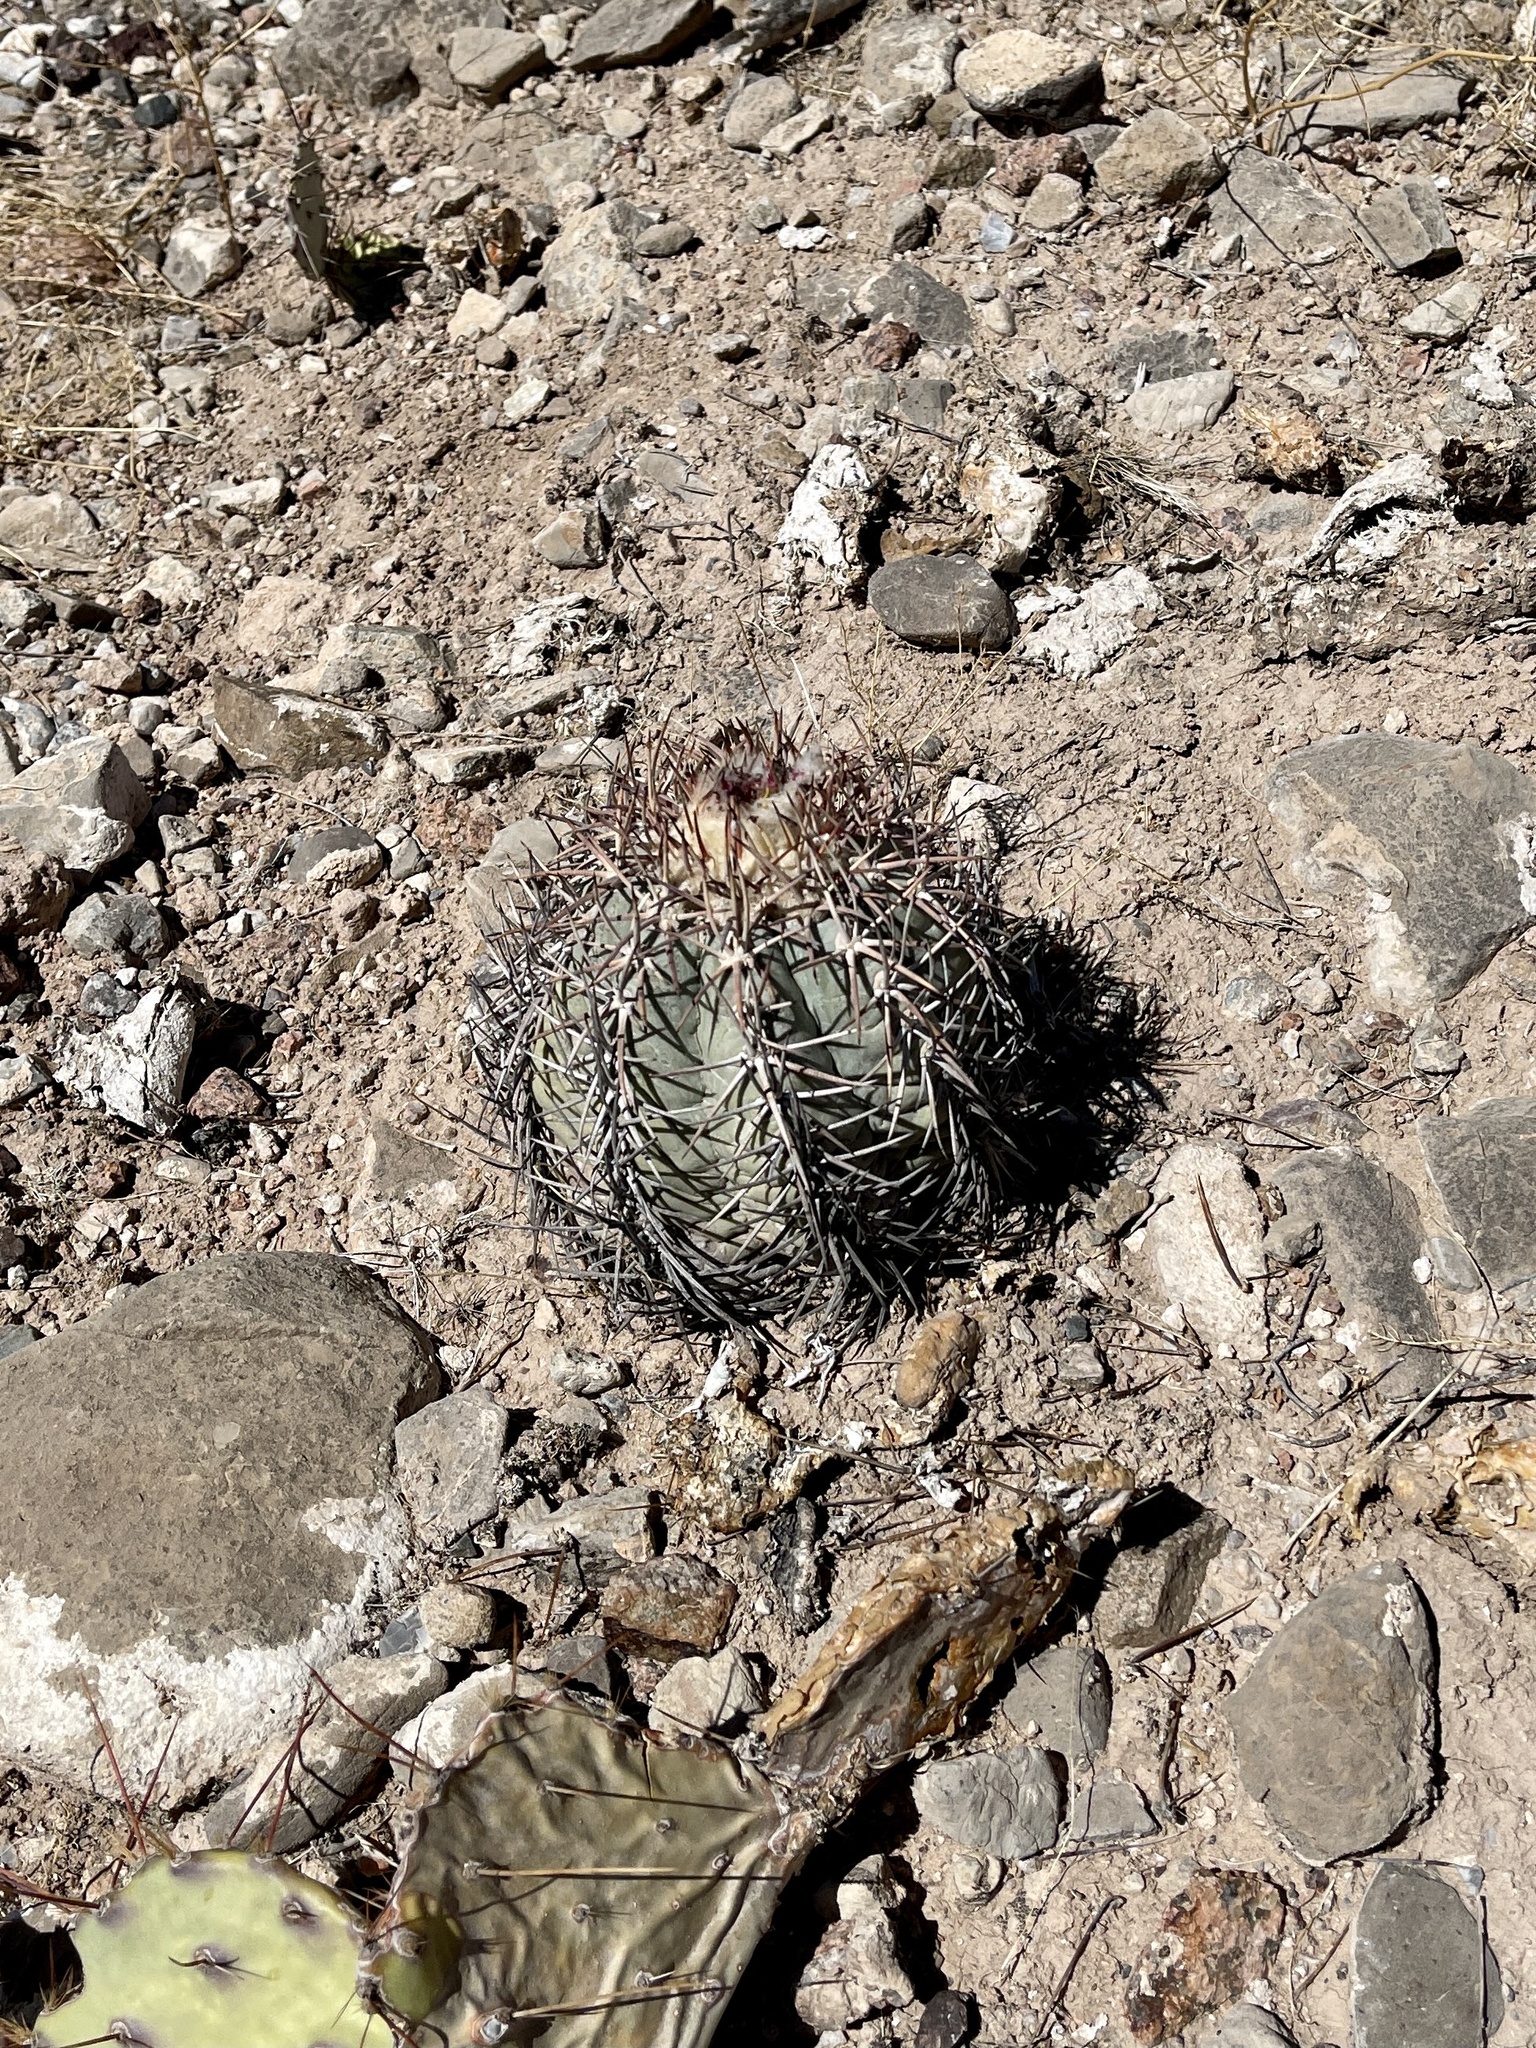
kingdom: Plantae
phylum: Tracheophyta
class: Magnoliopsida
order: Caryophyllales
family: Cactaceae
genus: Echinocactus
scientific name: Echinocactus horizonthalonius
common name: Devilshead
